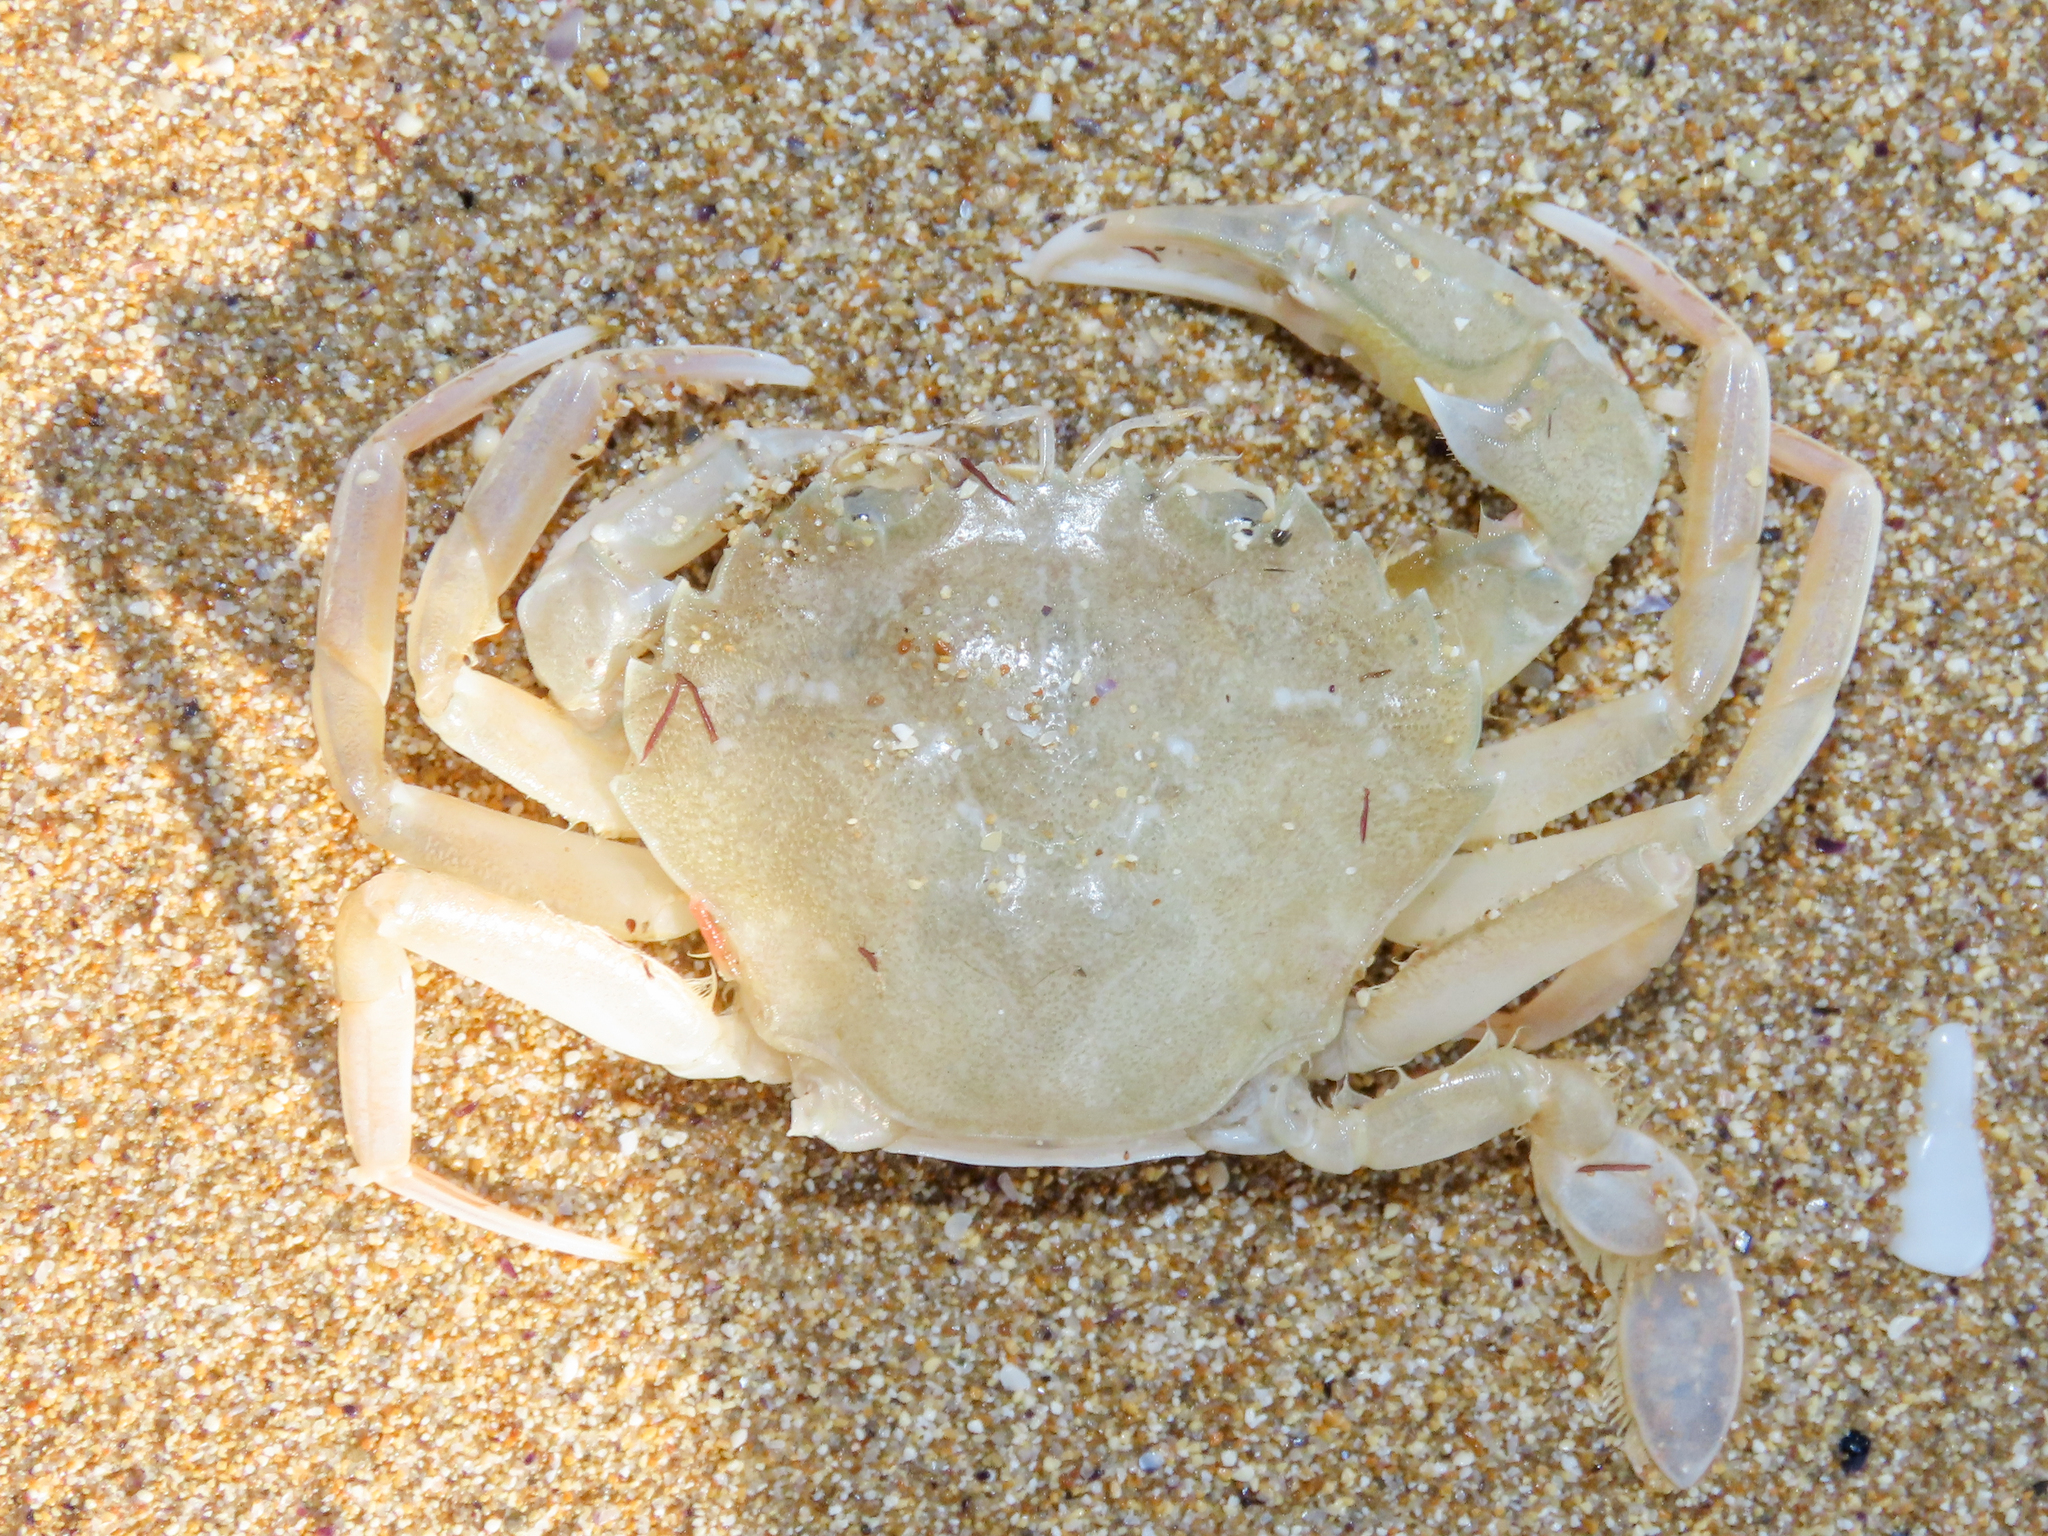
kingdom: Animalia
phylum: Arthropoda
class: Malacostraca
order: Decapoda
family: Polybiidae
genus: Liocarcinus
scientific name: Liocarcinus vernalis
